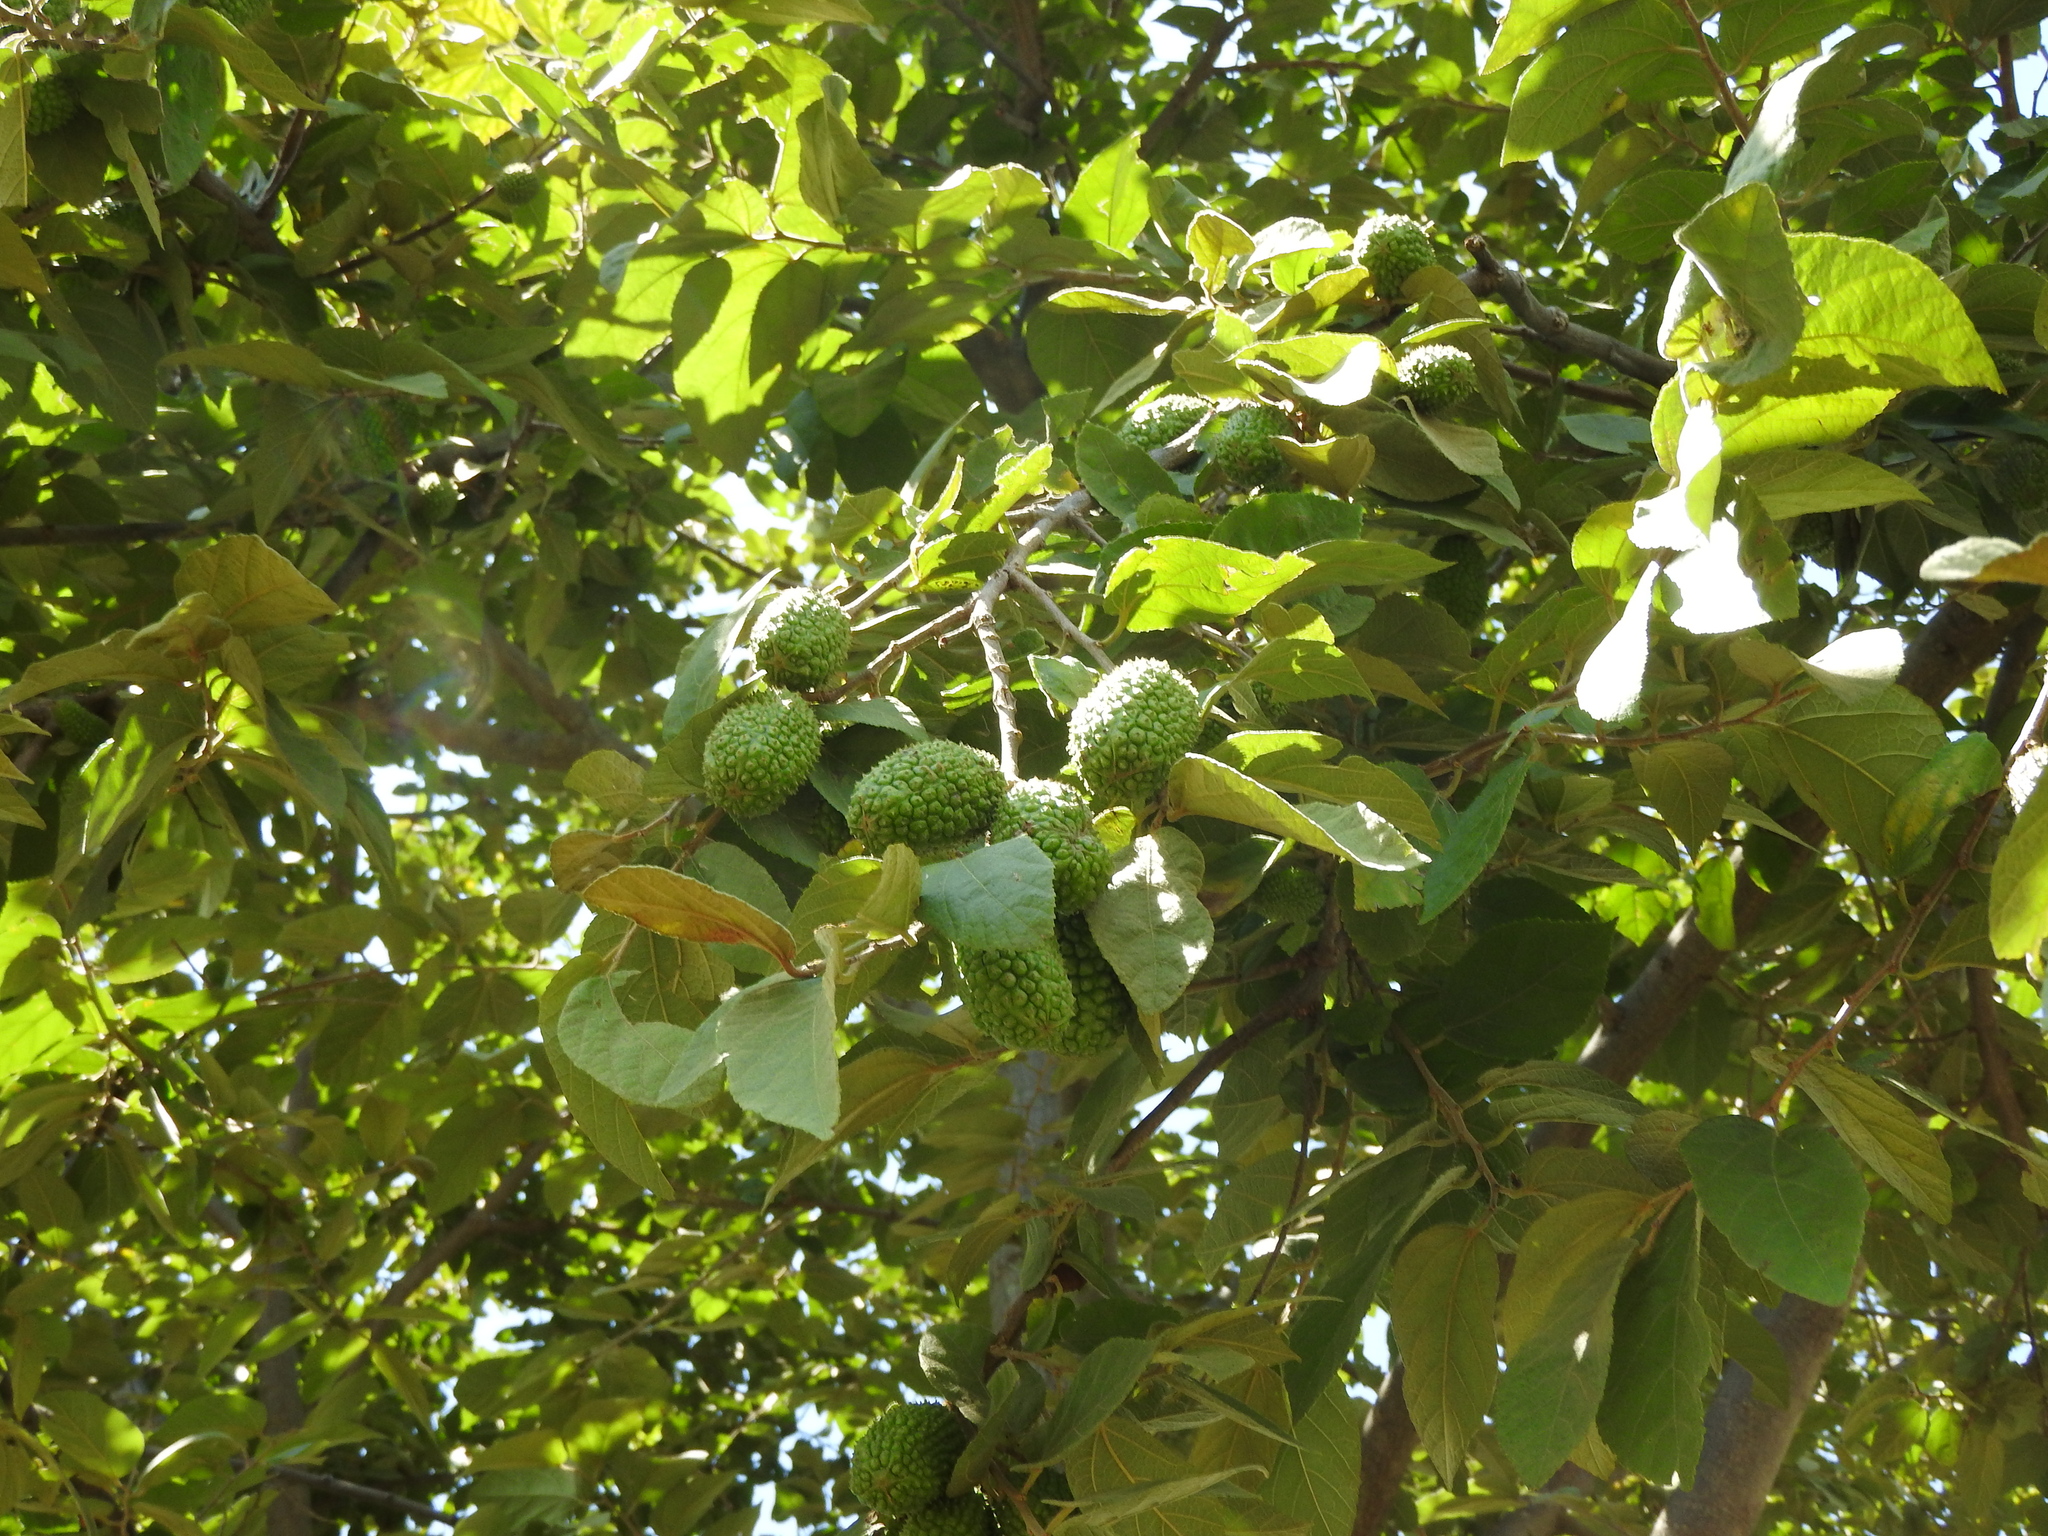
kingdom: Plantae
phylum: Tracheophyta
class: Magnoliopsida
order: Malvales
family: Malvaceae
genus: Guazuma
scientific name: Guazuma ulmifolia
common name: Bastard-cedar
